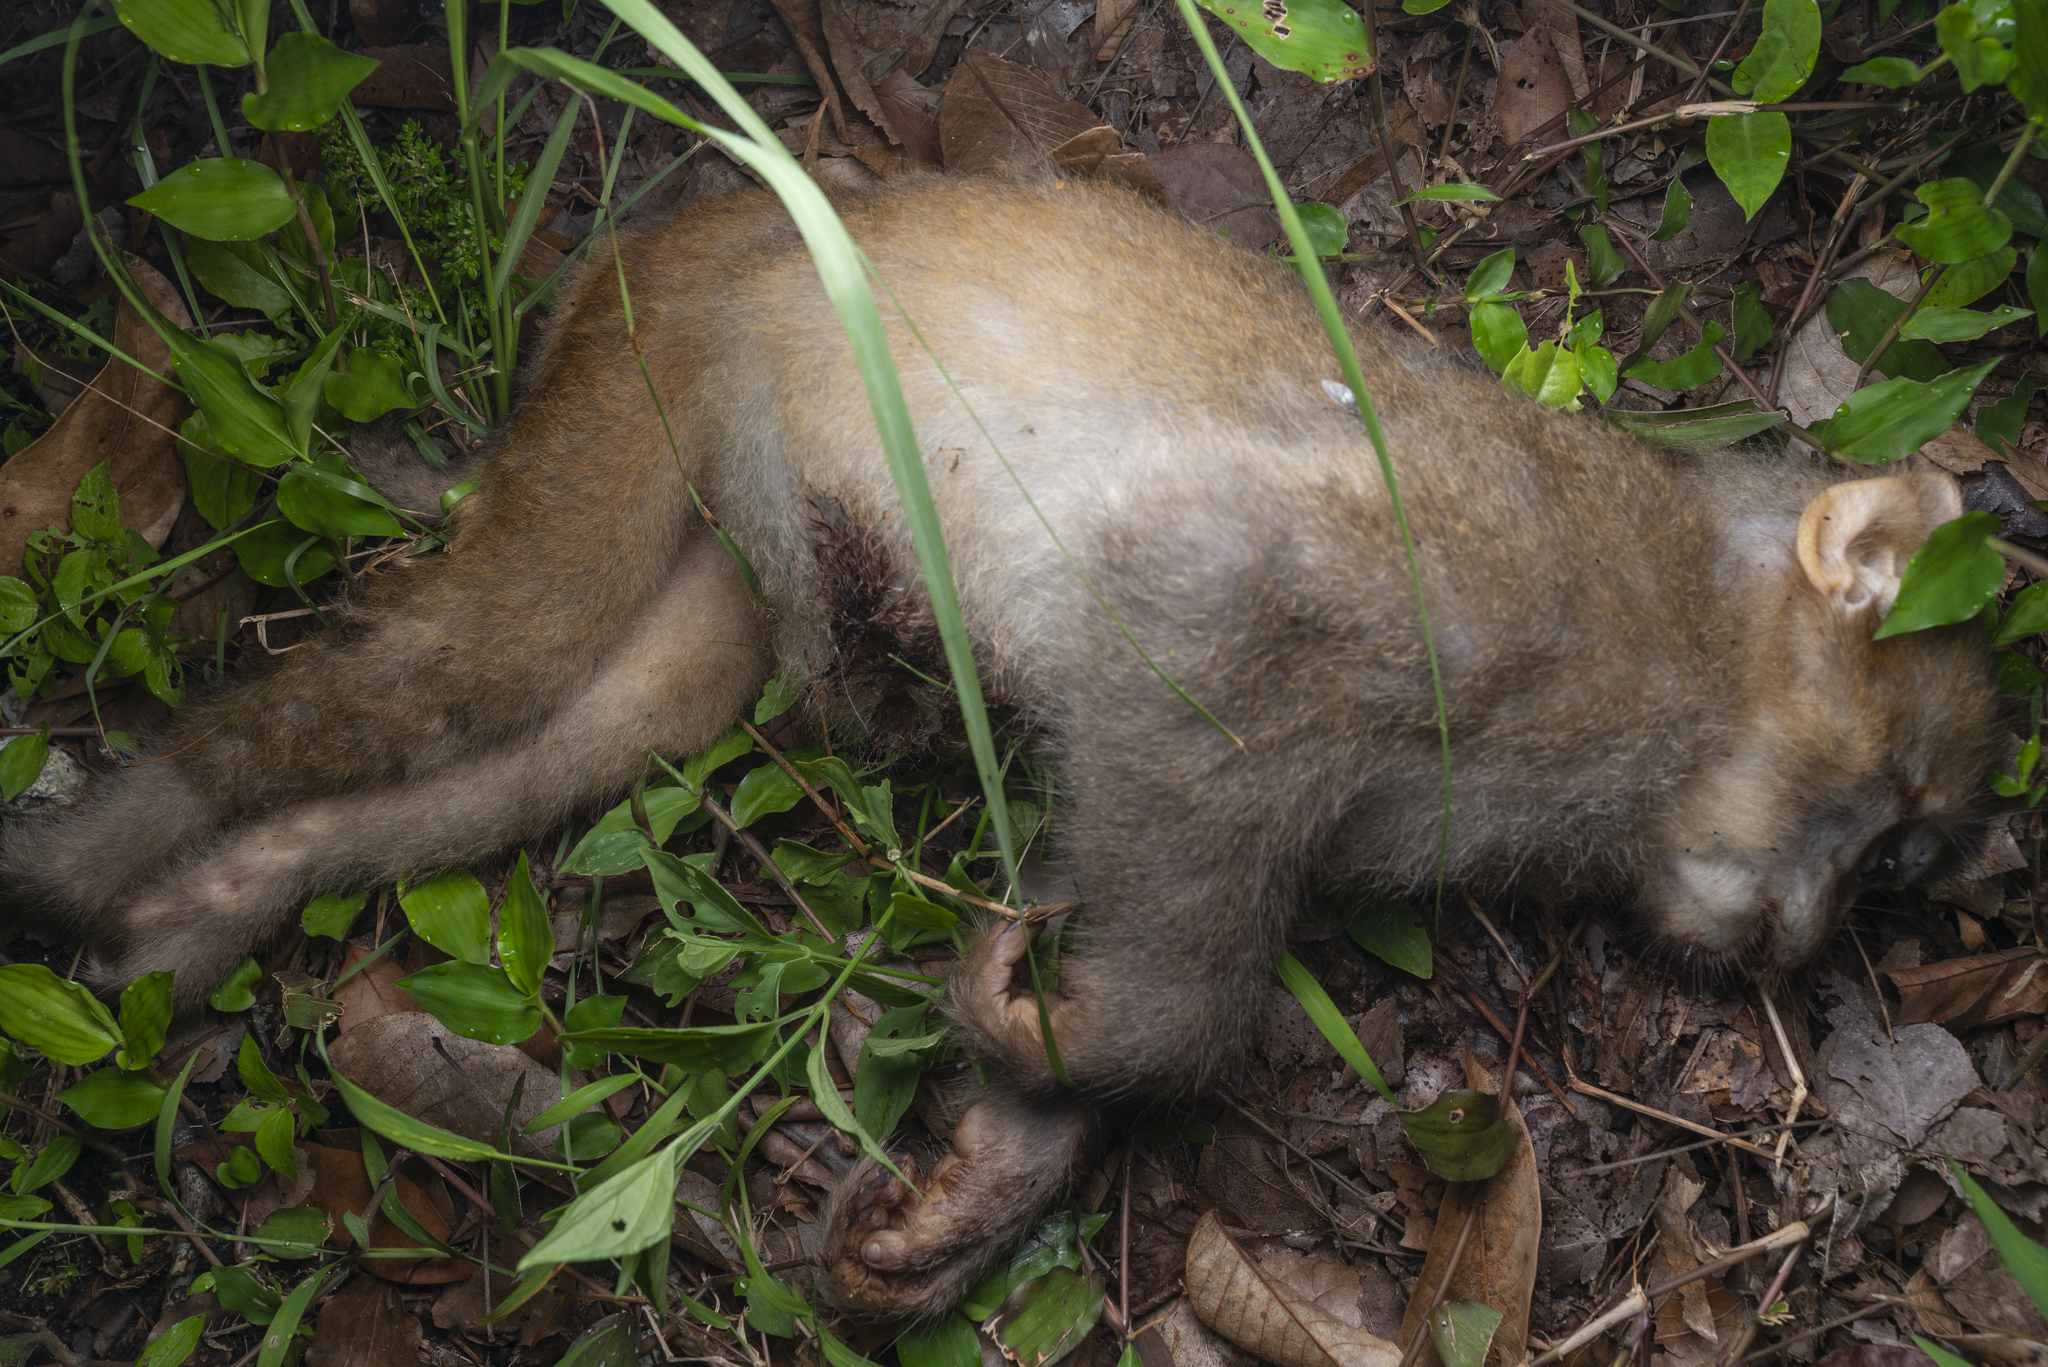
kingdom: Animalia
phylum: Chordata
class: Mammalia
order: Primates
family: Cercopithecidae
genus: Macaca
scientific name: Macaca mulatta
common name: Rhesus monkey
